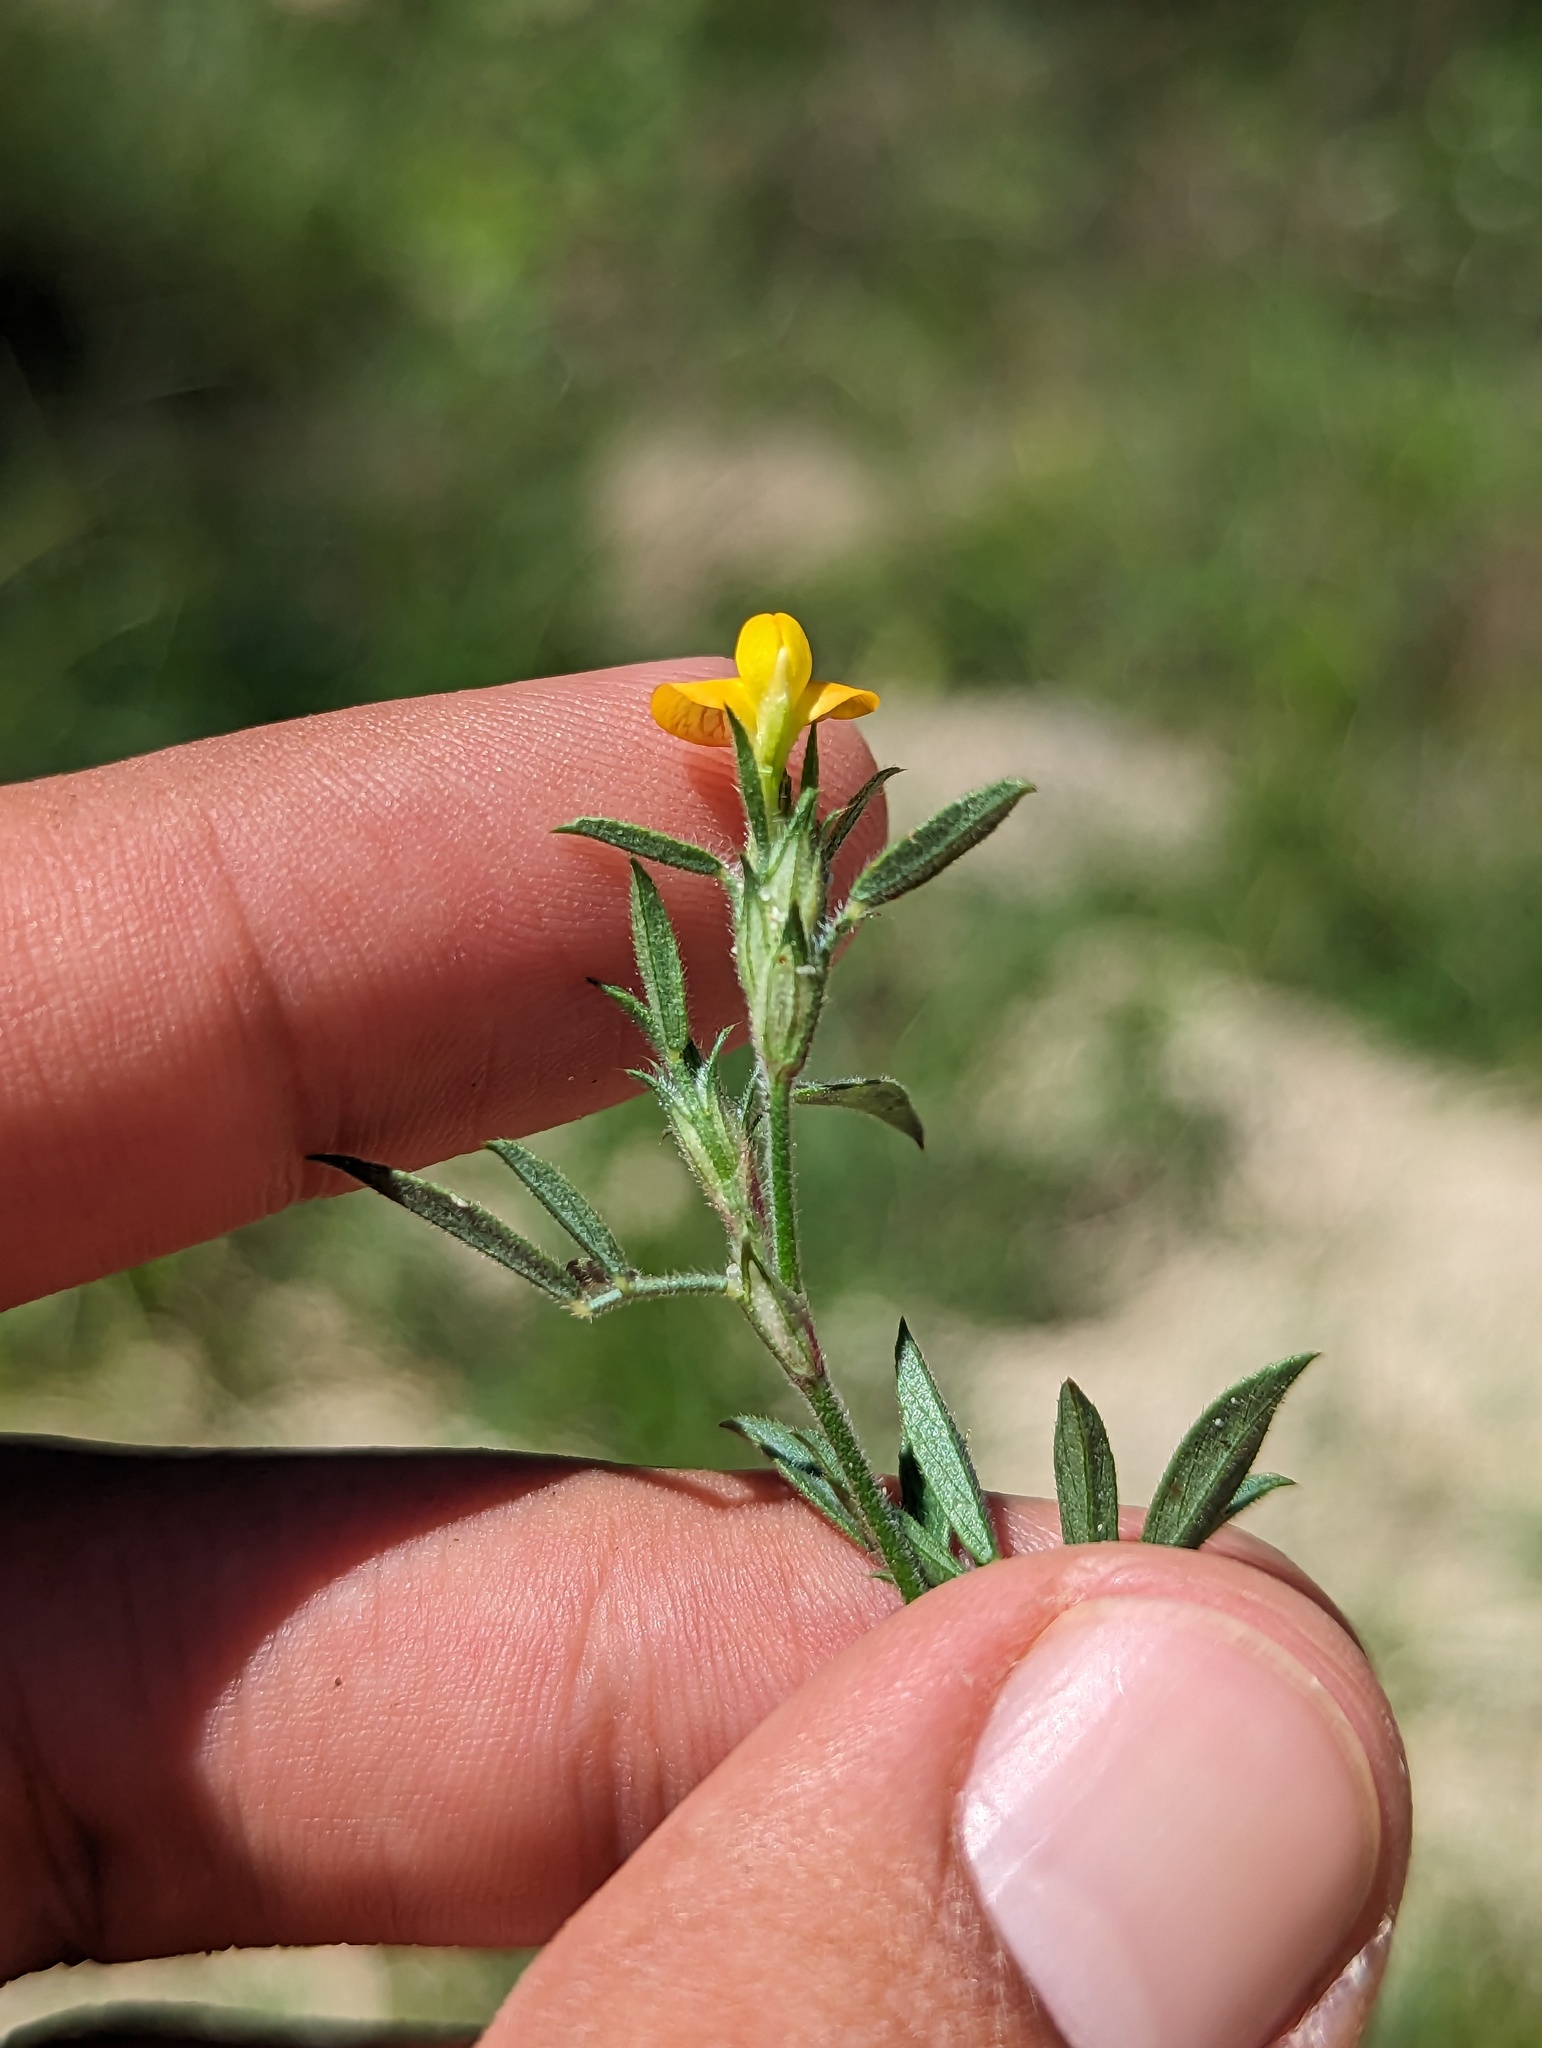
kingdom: Plantae
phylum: Tracheophyta
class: Magnoliopsida
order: Fabales
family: Fabaceae
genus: Stylosanthes
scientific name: Stylosanthes viscosa
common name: Viscid pencil-flower
